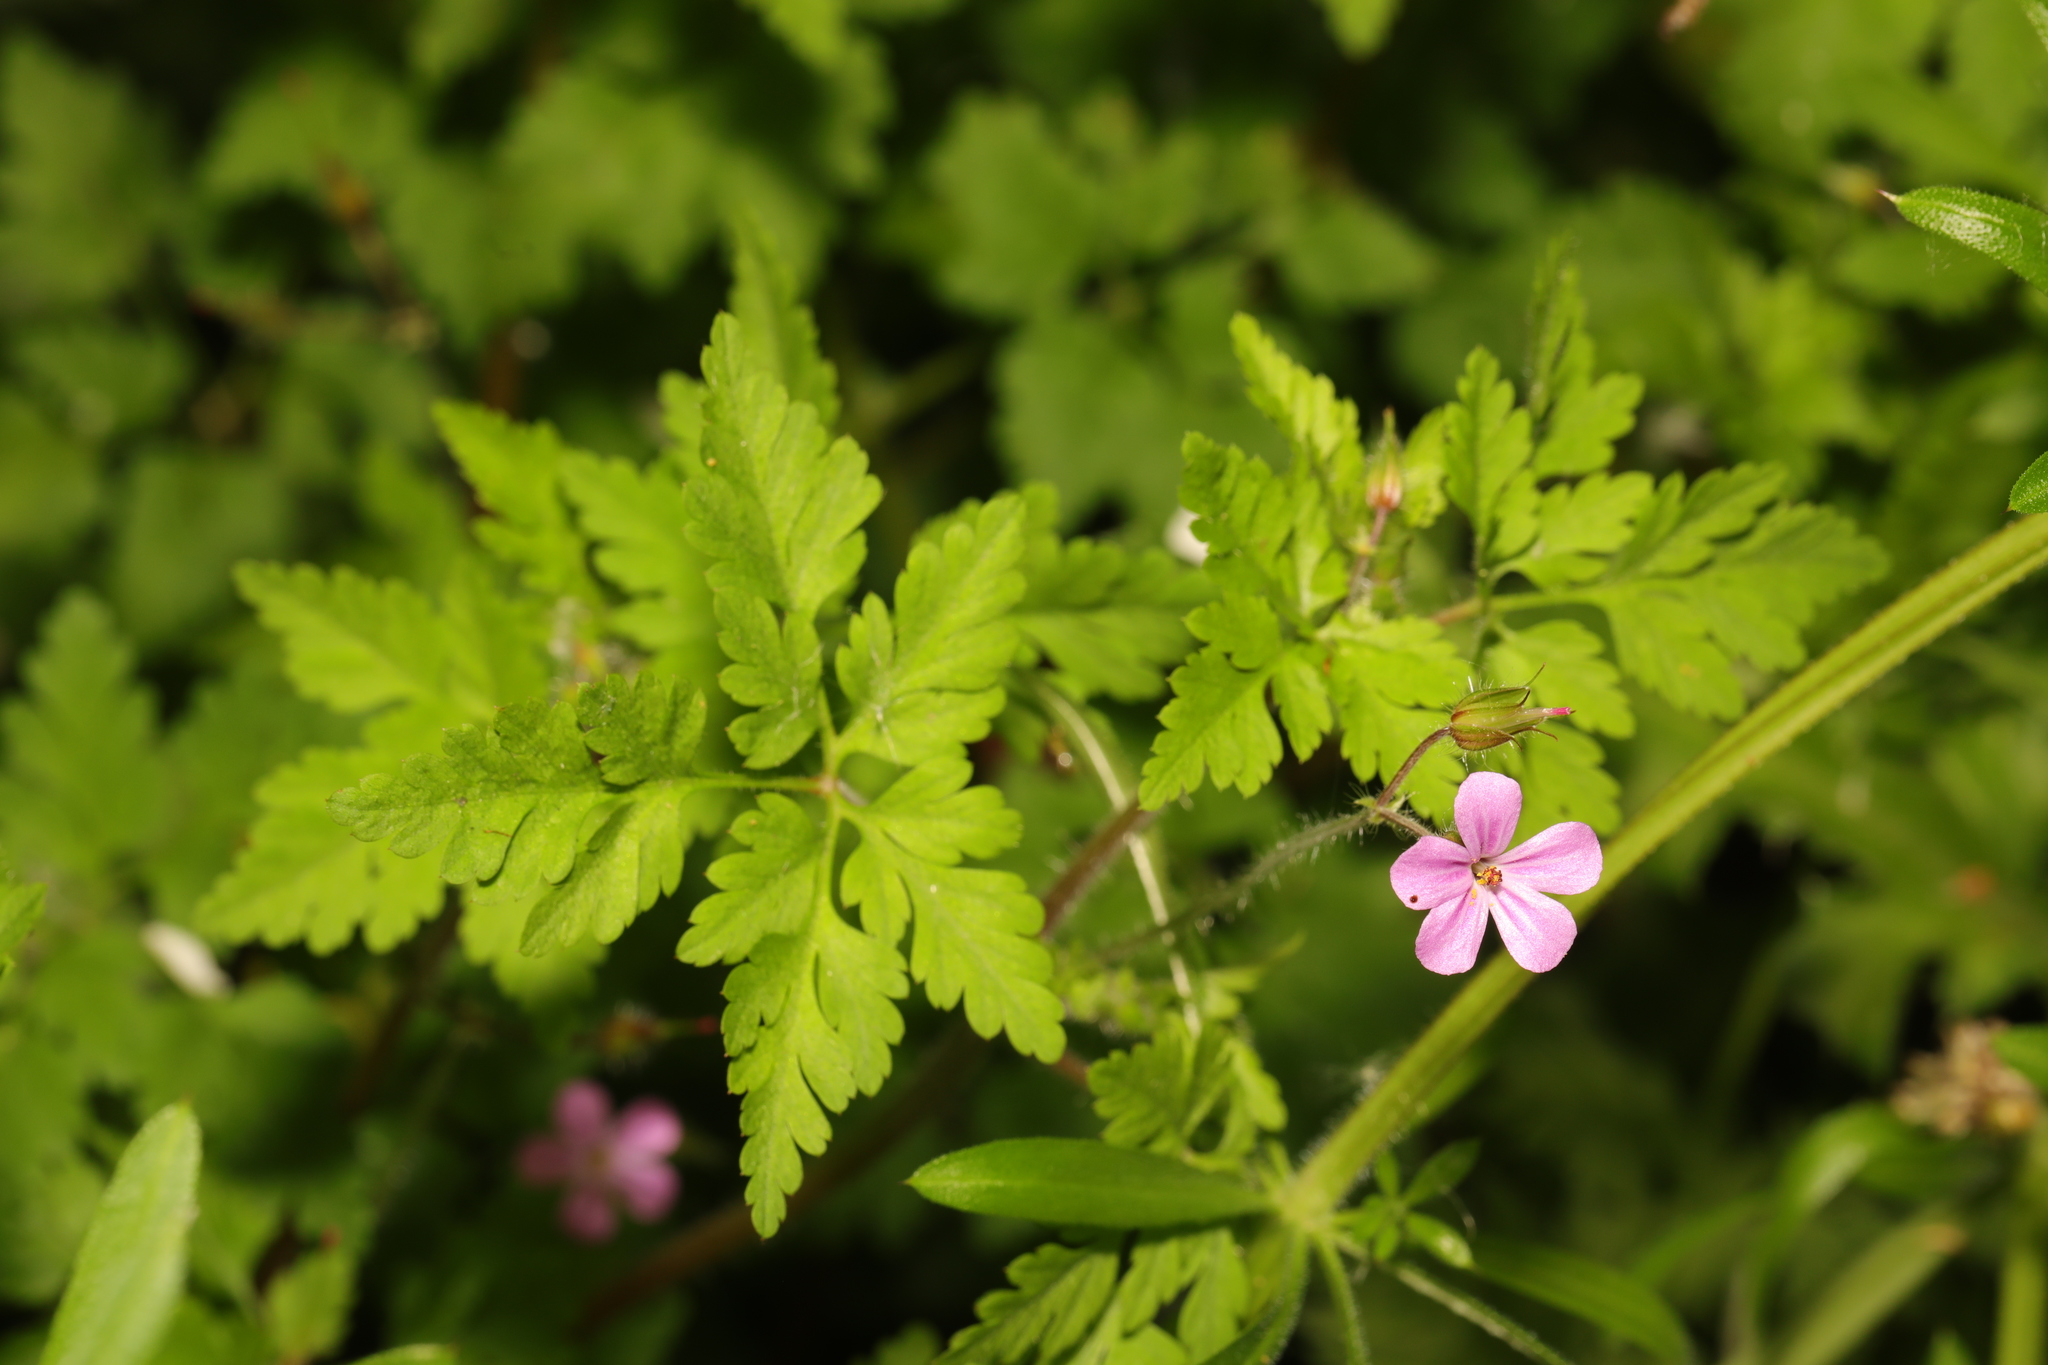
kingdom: Plantae
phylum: Tracheophyta
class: Magnoliopsida
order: Geraniales
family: Geraniaceae
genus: Geranium
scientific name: Geranium robertianum
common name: Herb-robert
